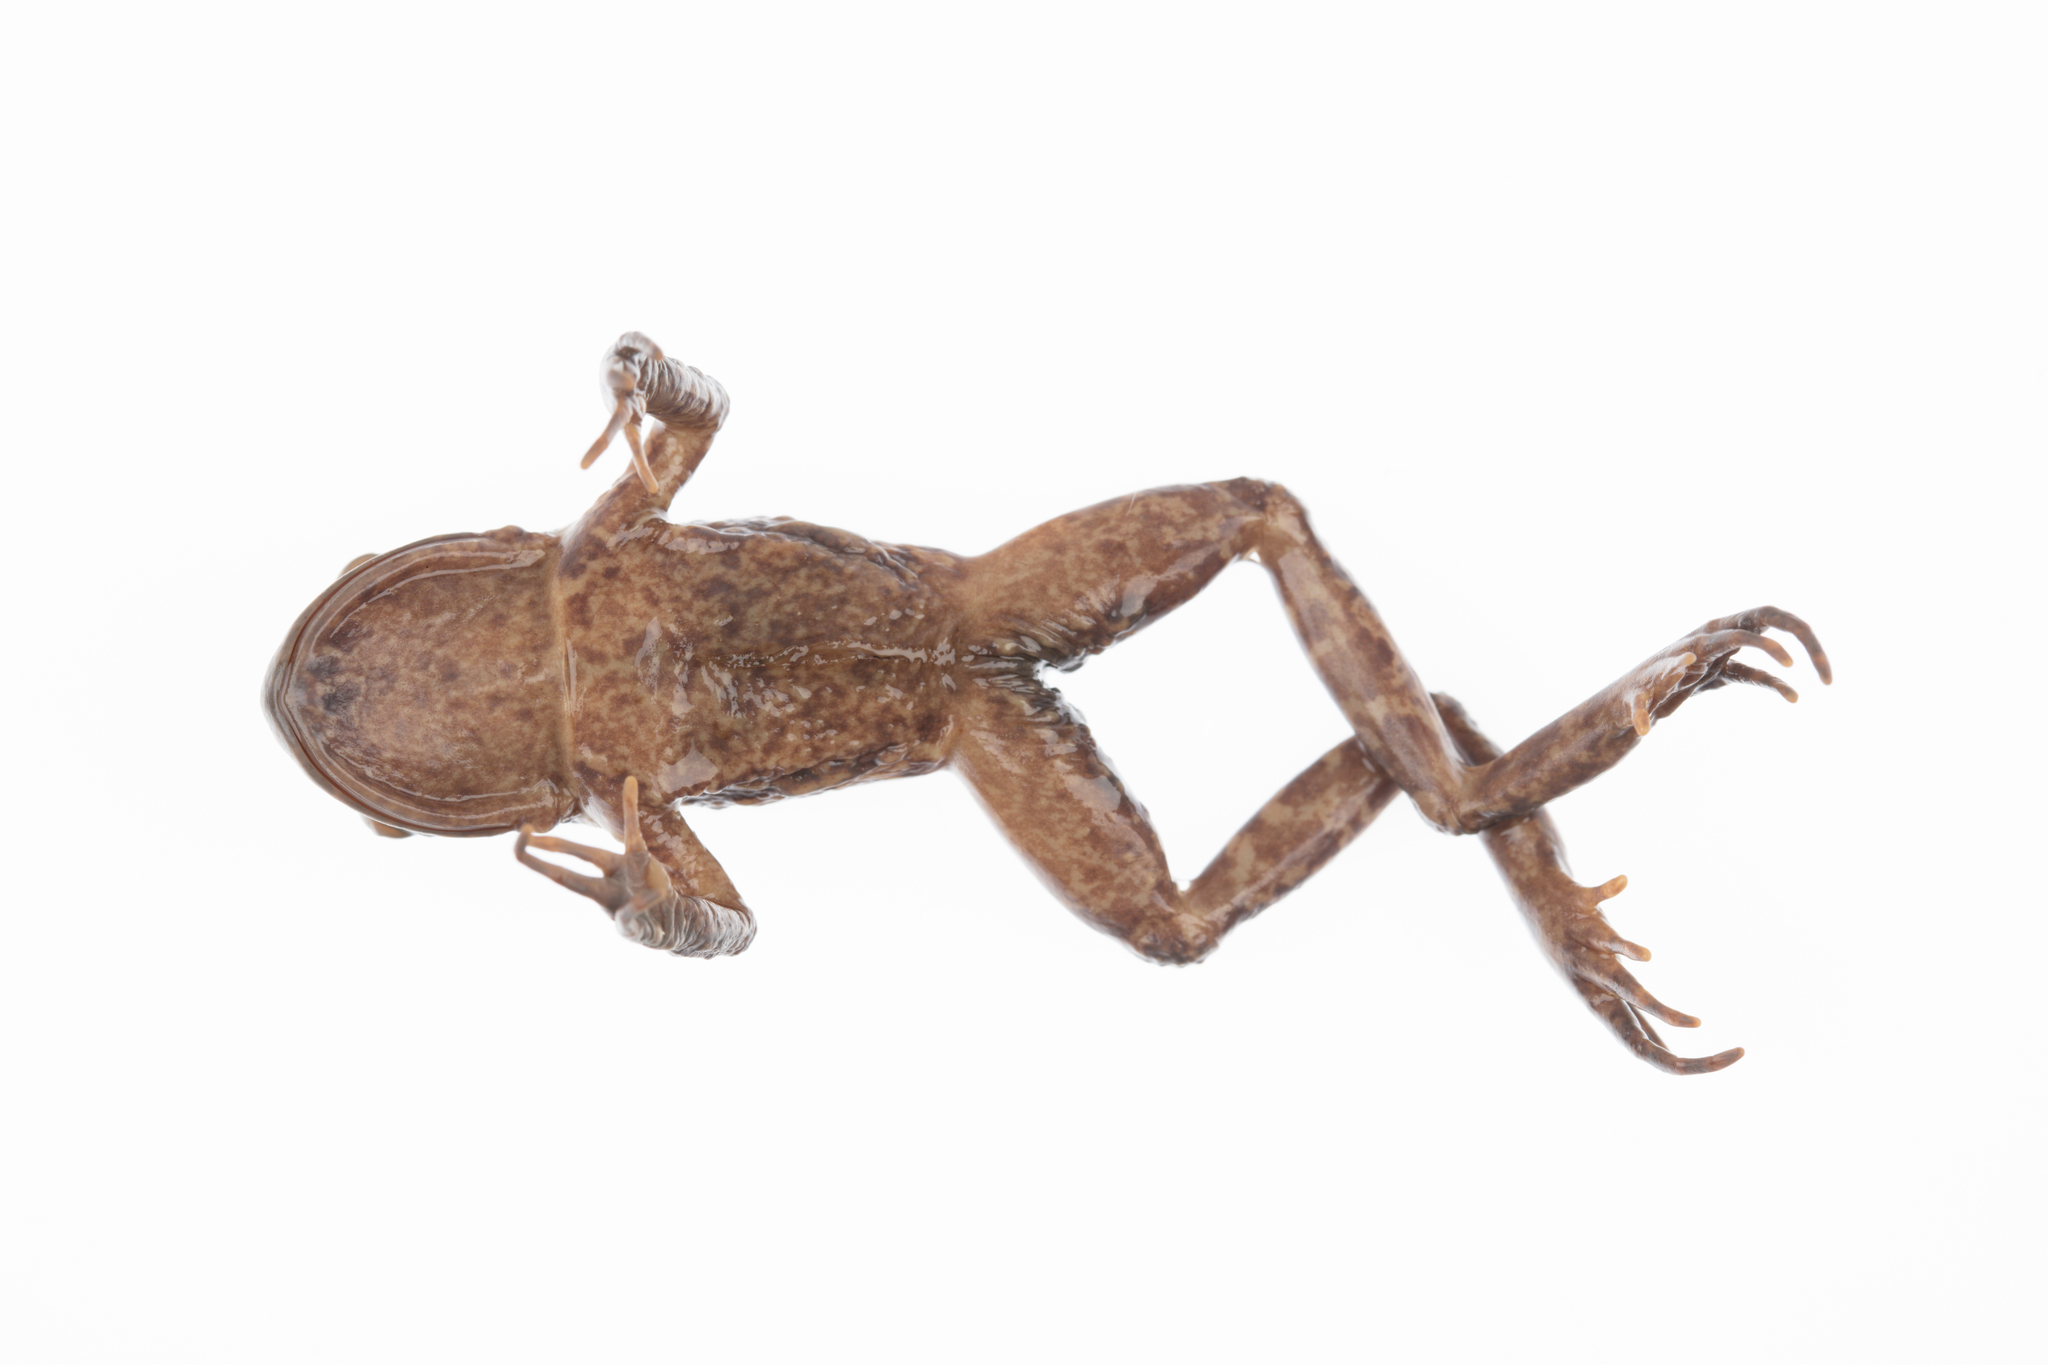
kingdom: Animalia
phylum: Chordata
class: Amphibia
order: Anura
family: Leiopelmatidae
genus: Leiopelma
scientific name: Leiopelma archeyi
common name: Archey's frog
